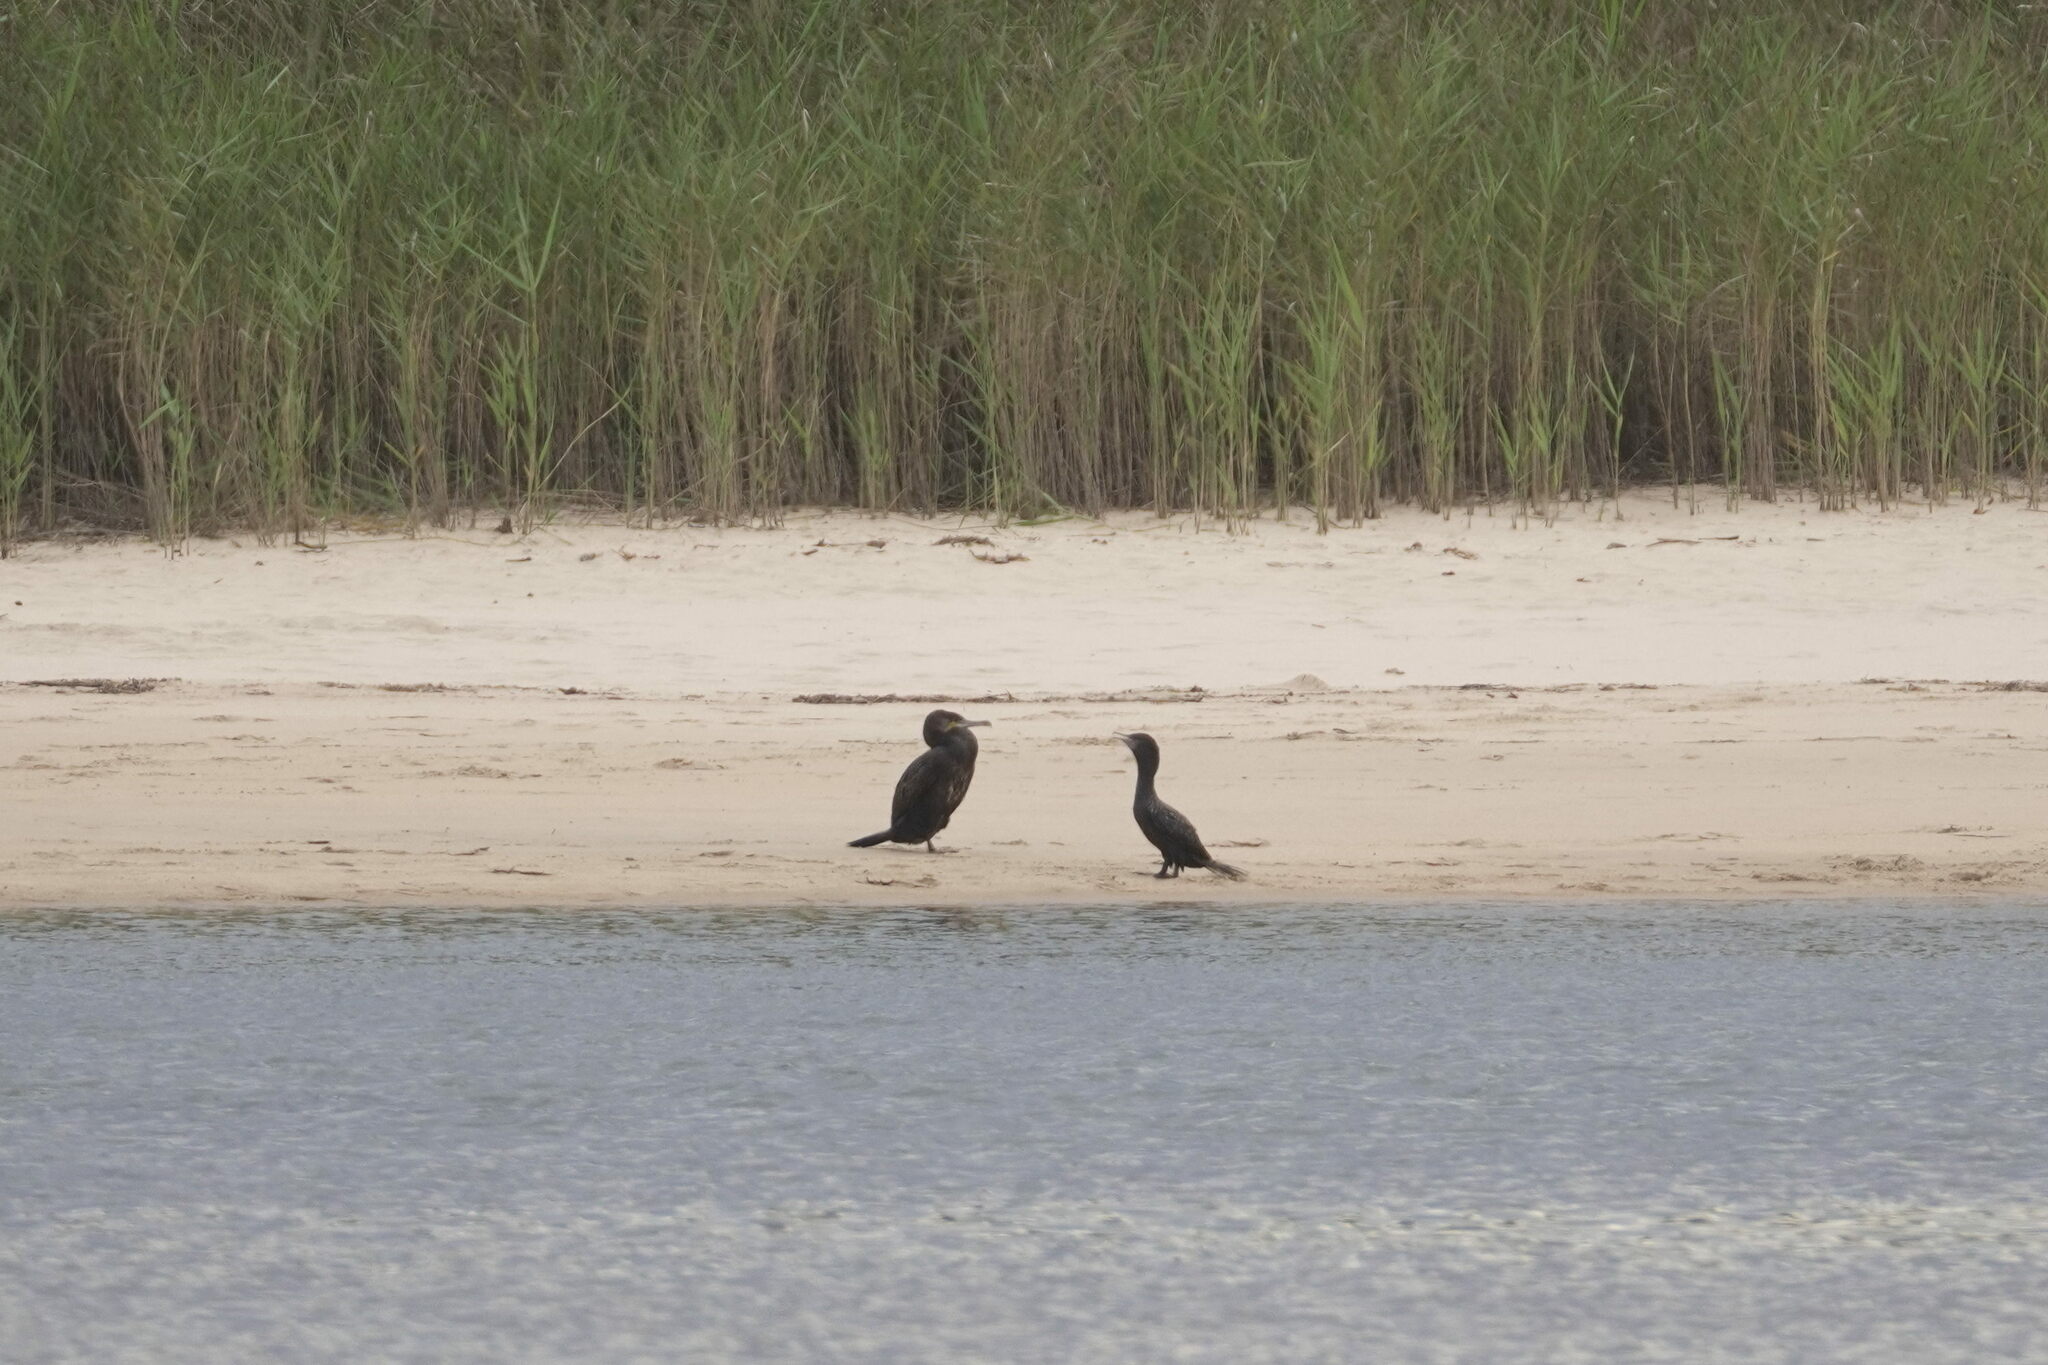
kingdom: Animalia
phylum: Chordata
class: Aves
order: Suliformes
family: Phalacrocoracidae
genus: Phalacrocorax
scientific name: Phalacrocorax carbo
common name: Great cormorant
